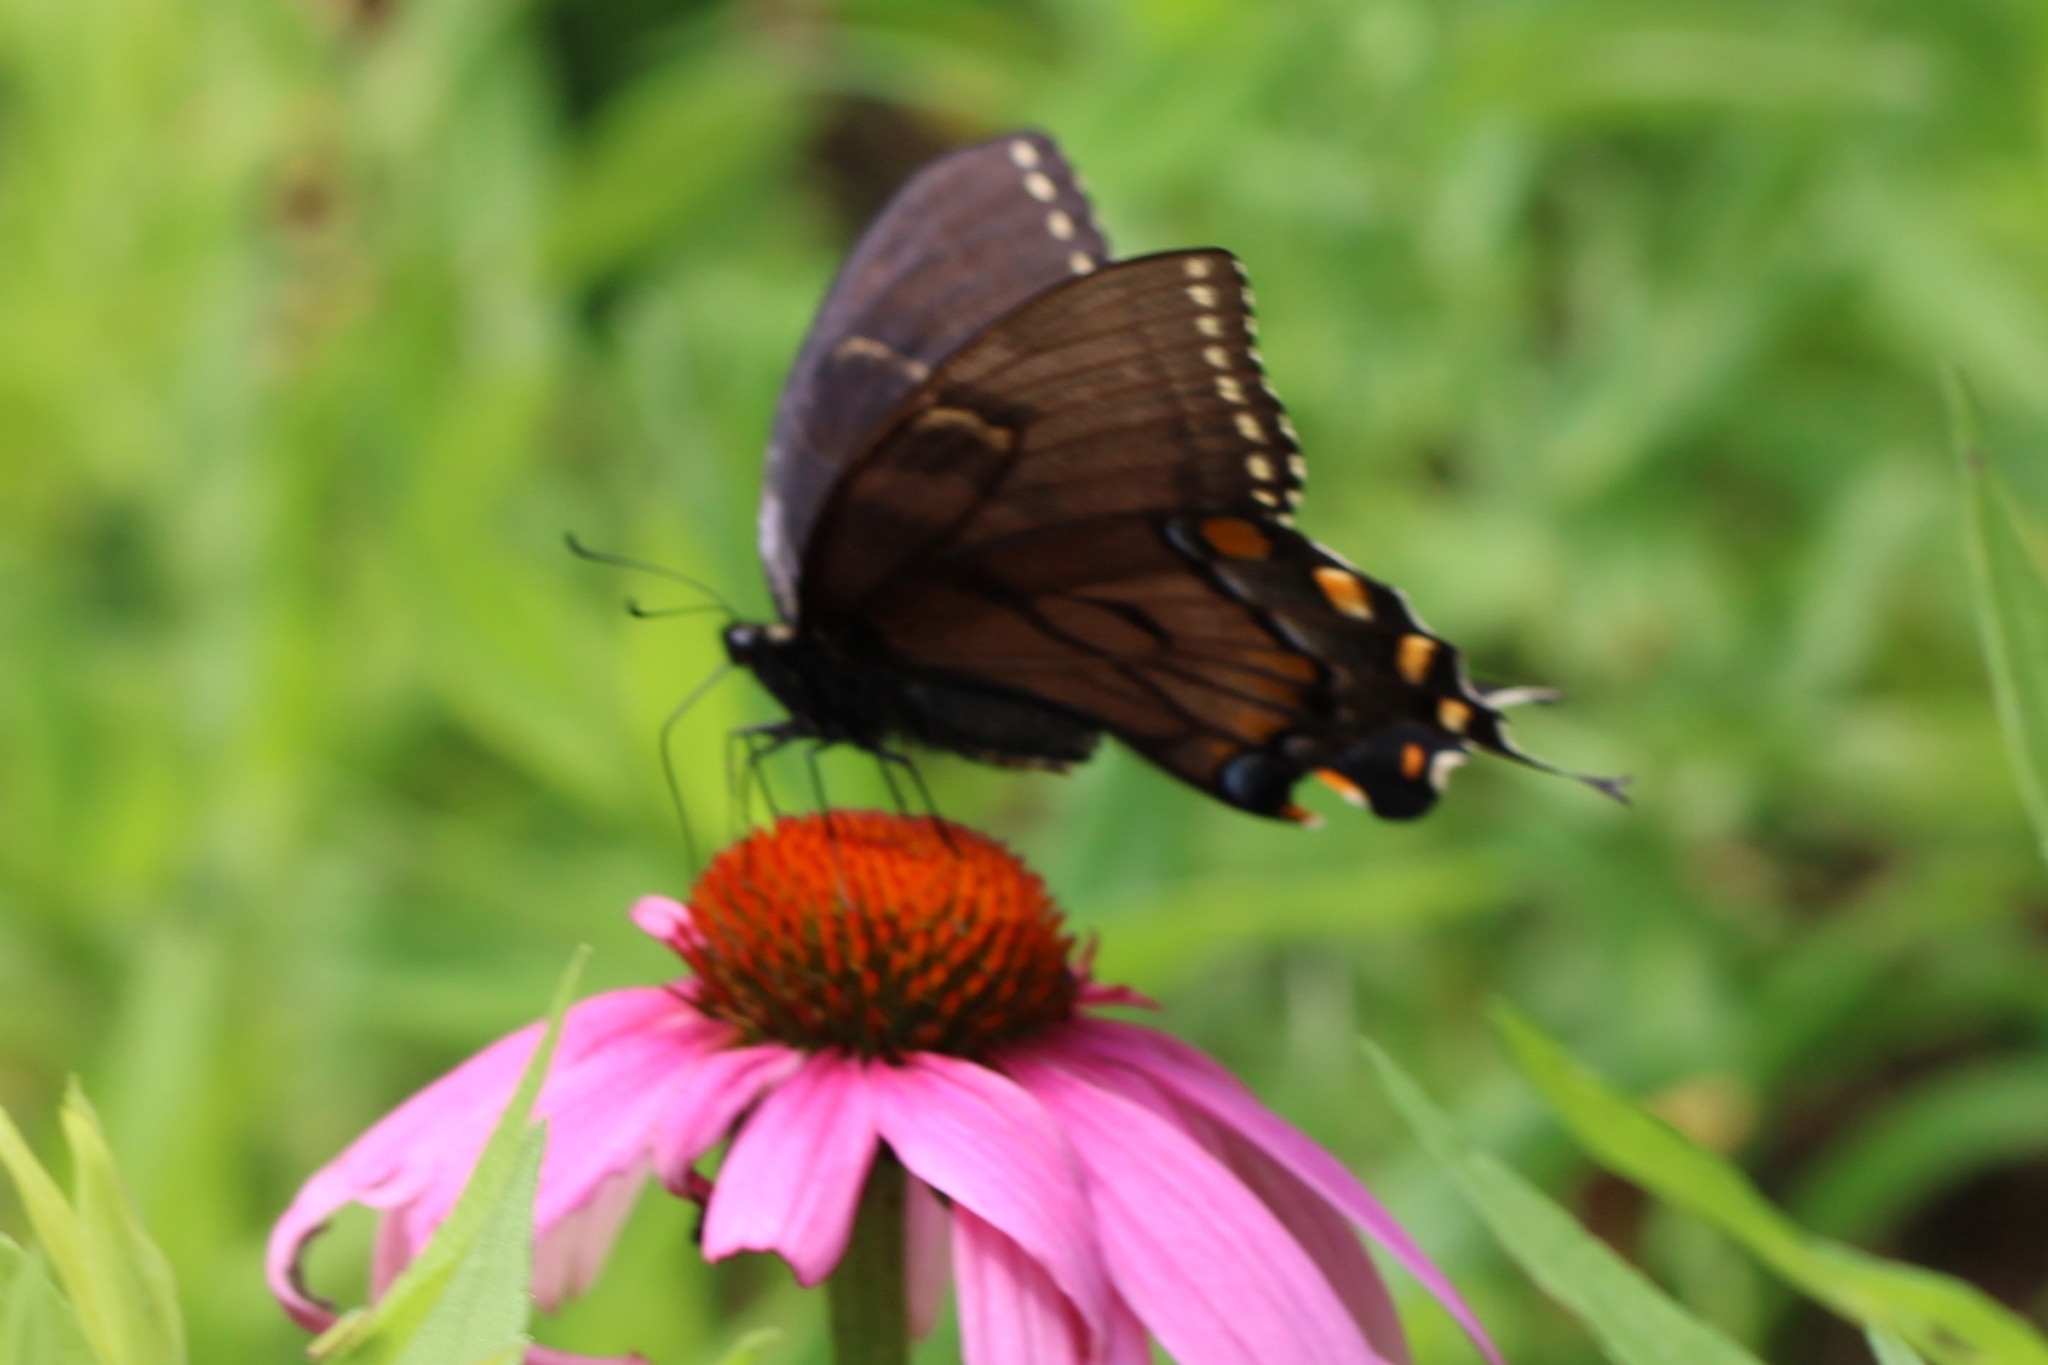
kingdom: Animalia
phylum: Arthropoda
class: Insecta
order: Lepidoptera
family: Papilionidae
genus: Papilio
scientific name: Papilio glaucus
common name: Tiger swallowtail
